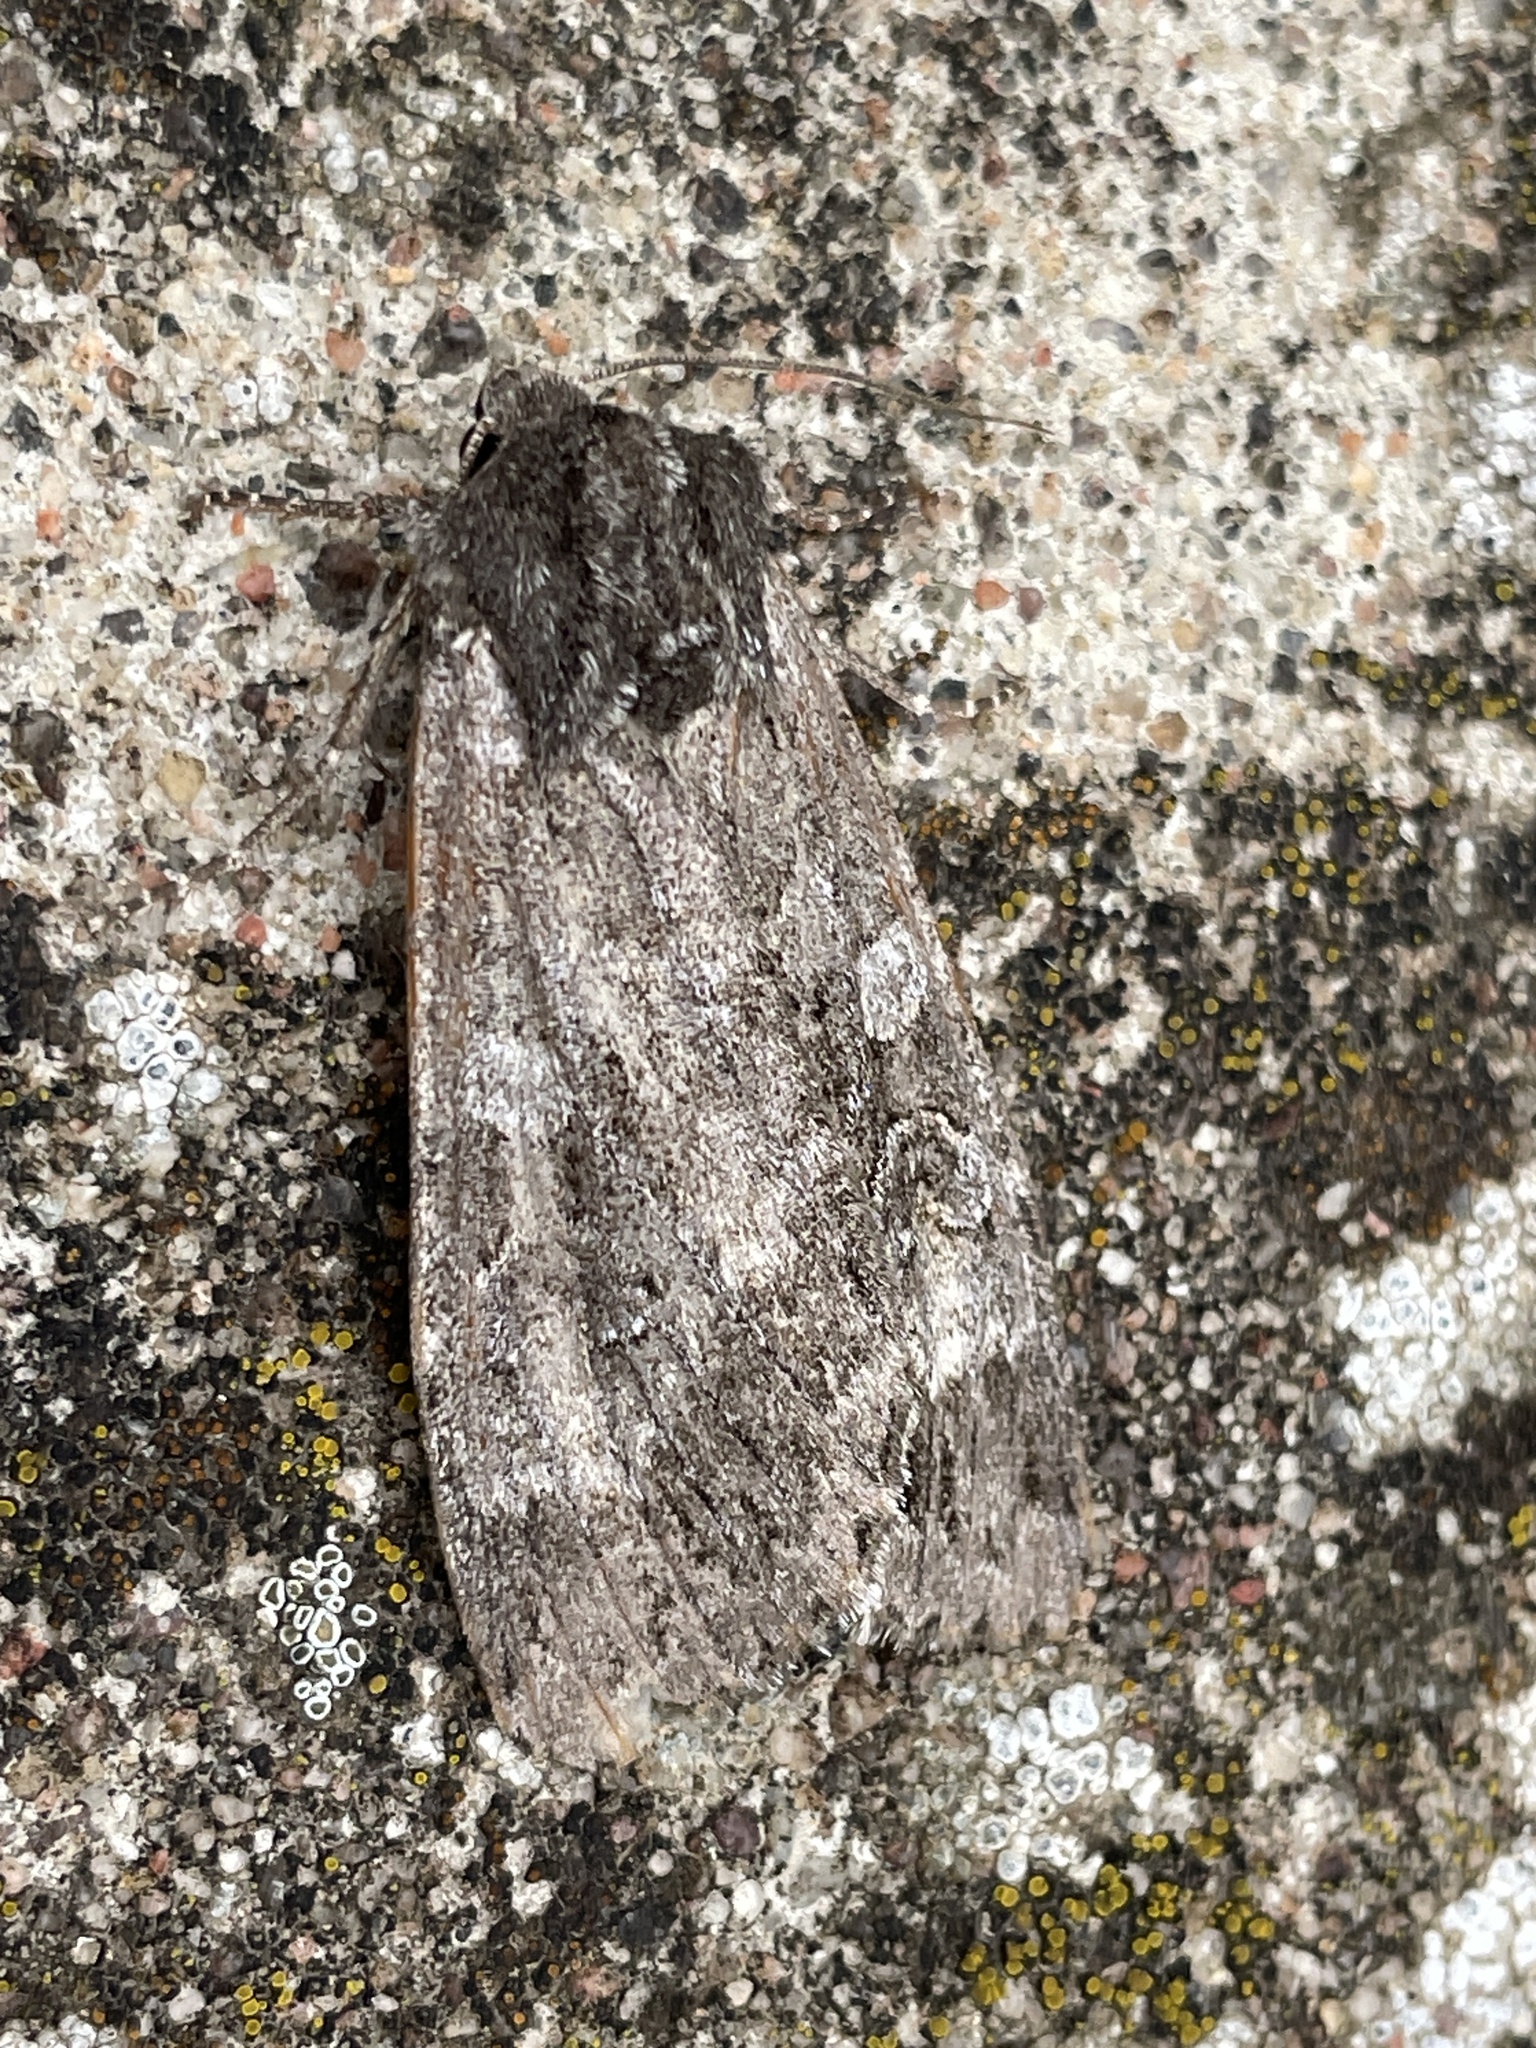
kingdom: Animalia
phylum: Arthropoda
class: Insecta
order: Lepidoptera
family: Noctuidae
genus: Eurois
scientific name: Eurois occulta
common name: Great brocade
